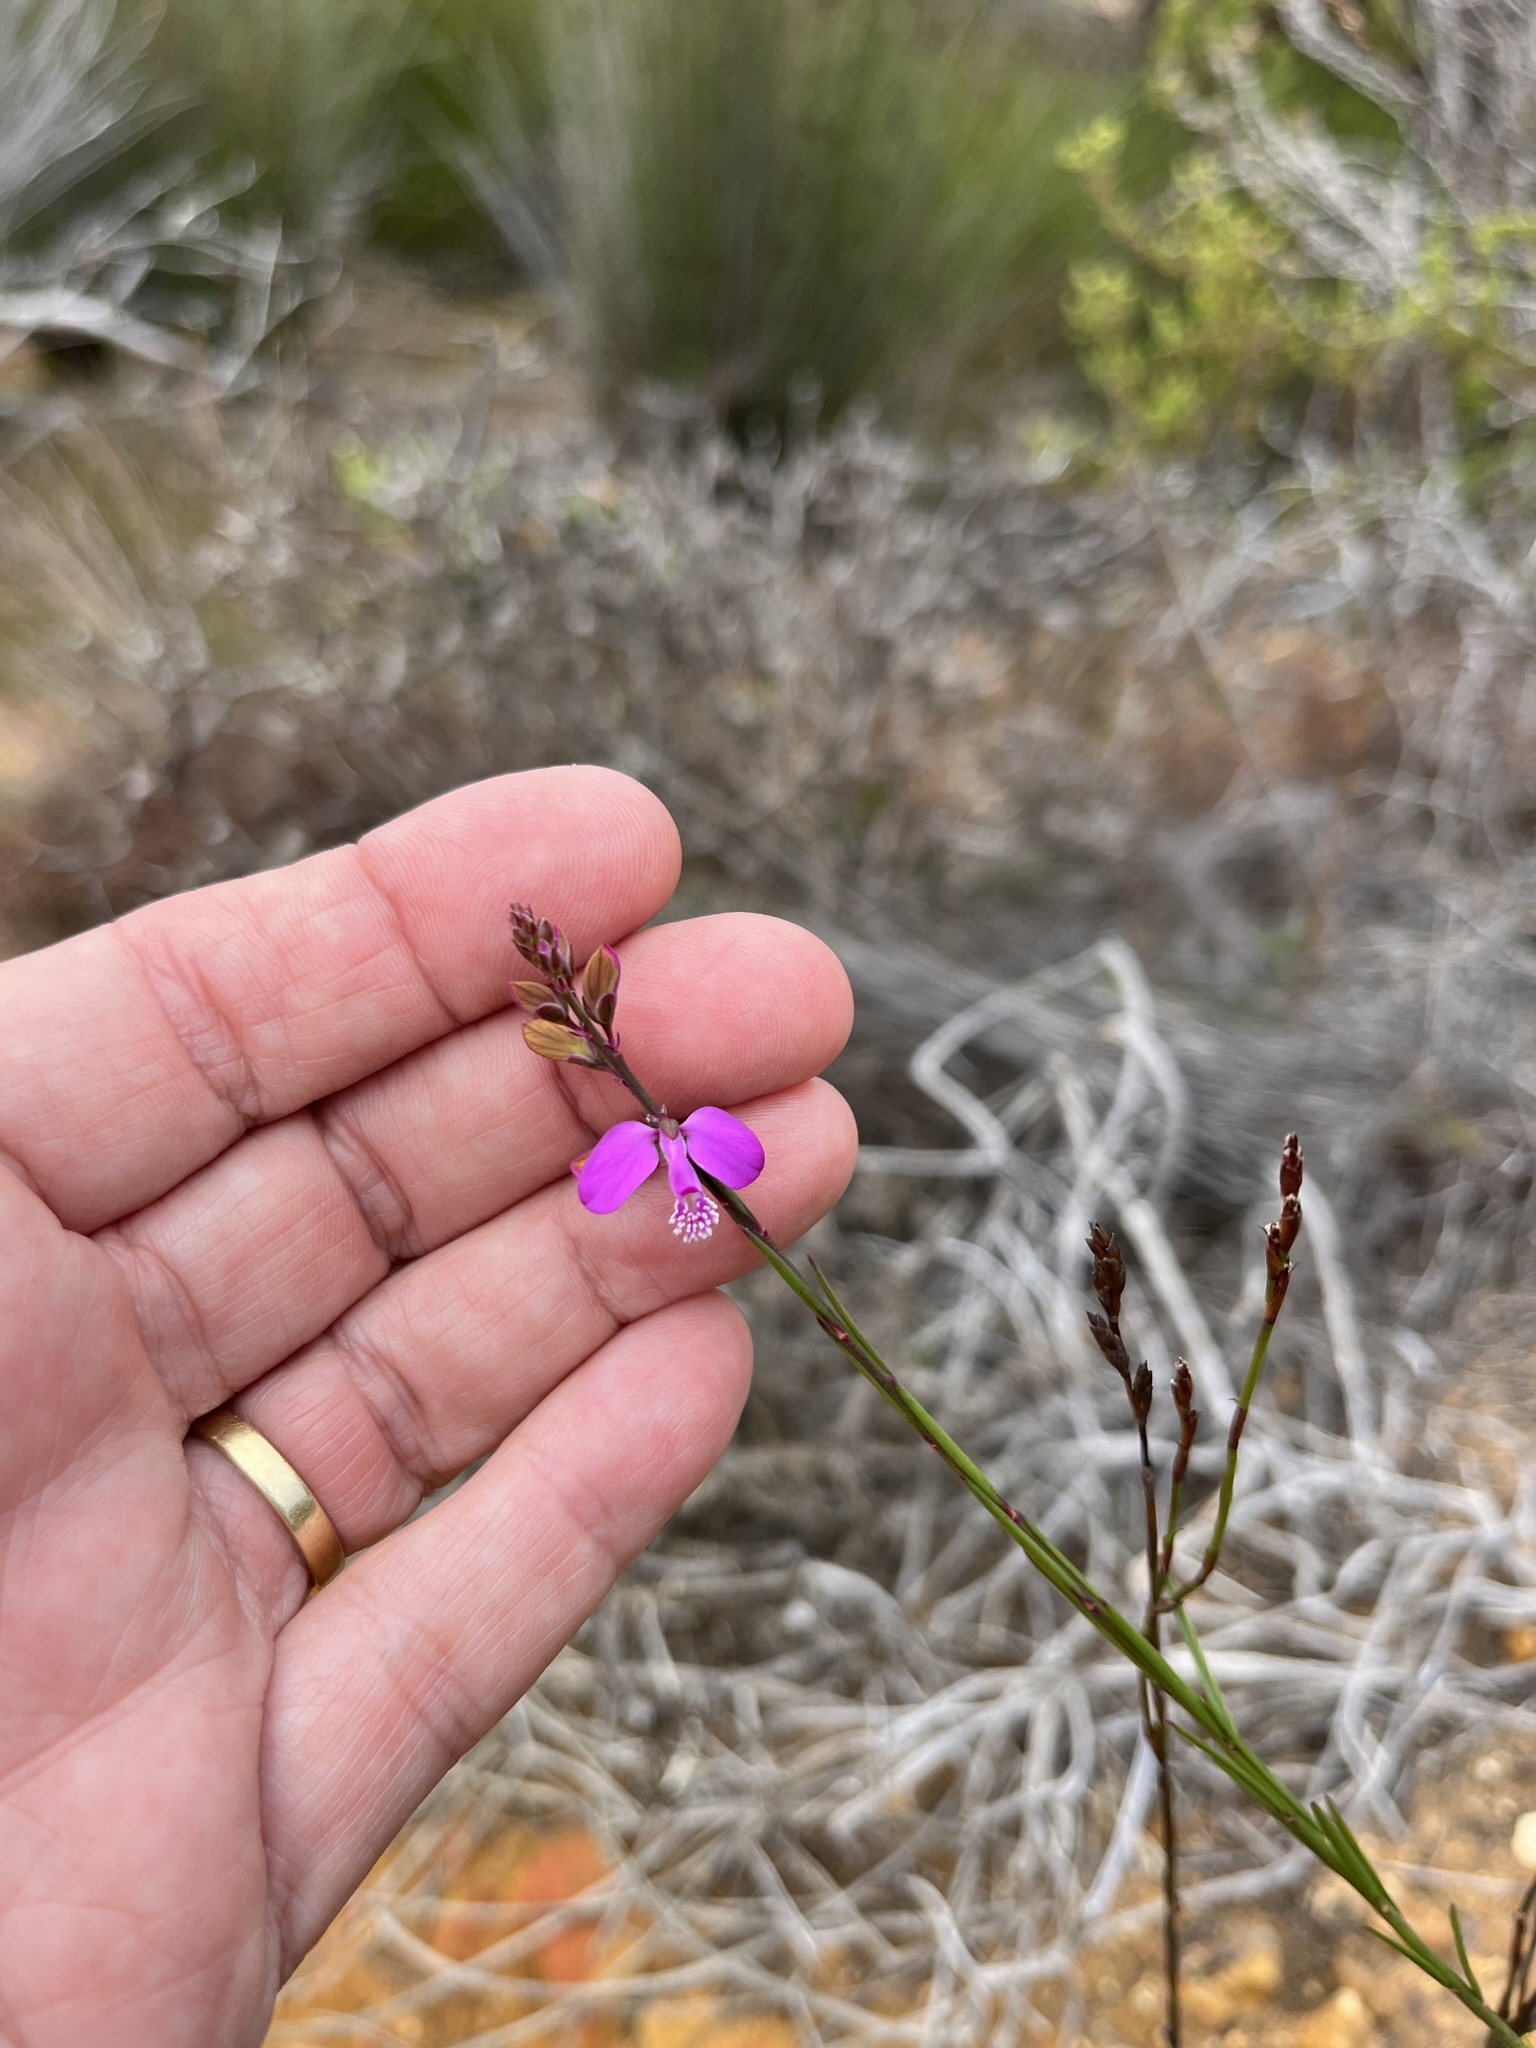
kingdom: Plantae
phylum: Tracheophyta
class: Magnoliopsida
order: Fabales
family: Polygalaceae
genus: Polygala
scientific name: Polygala garcini
